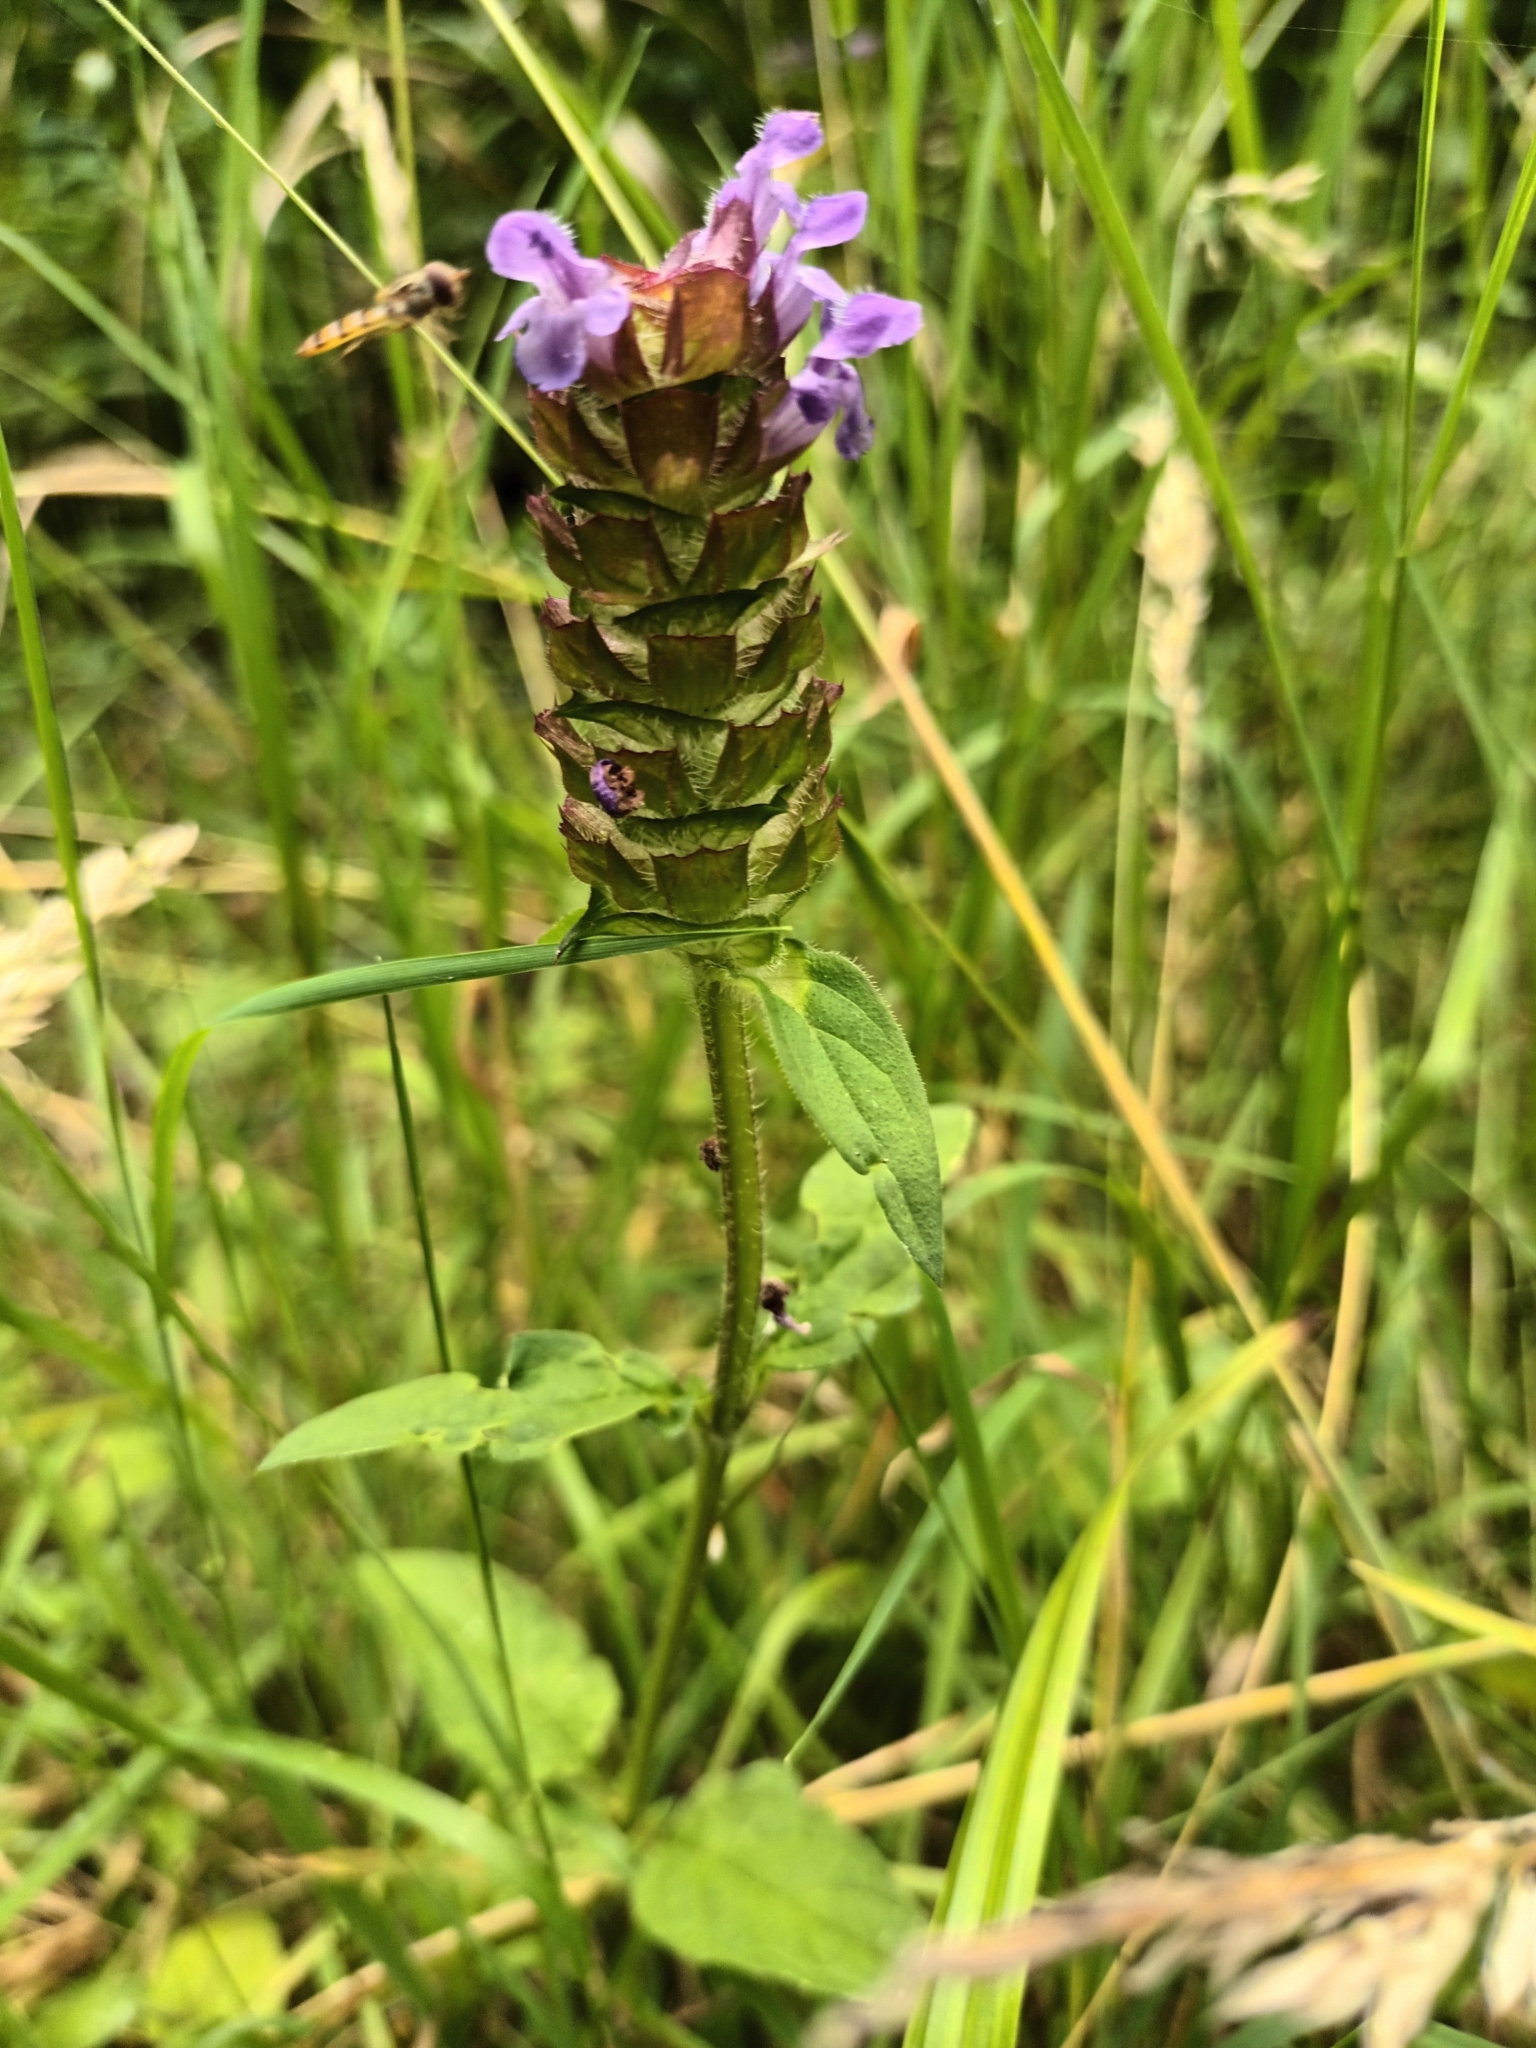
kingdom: Plantae
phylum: Tracheophyta
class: Magnoliopsida
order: Lamiales
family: Lamiaceae
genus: Prunella
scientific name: Prunella vulgaris
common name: Heal-all
